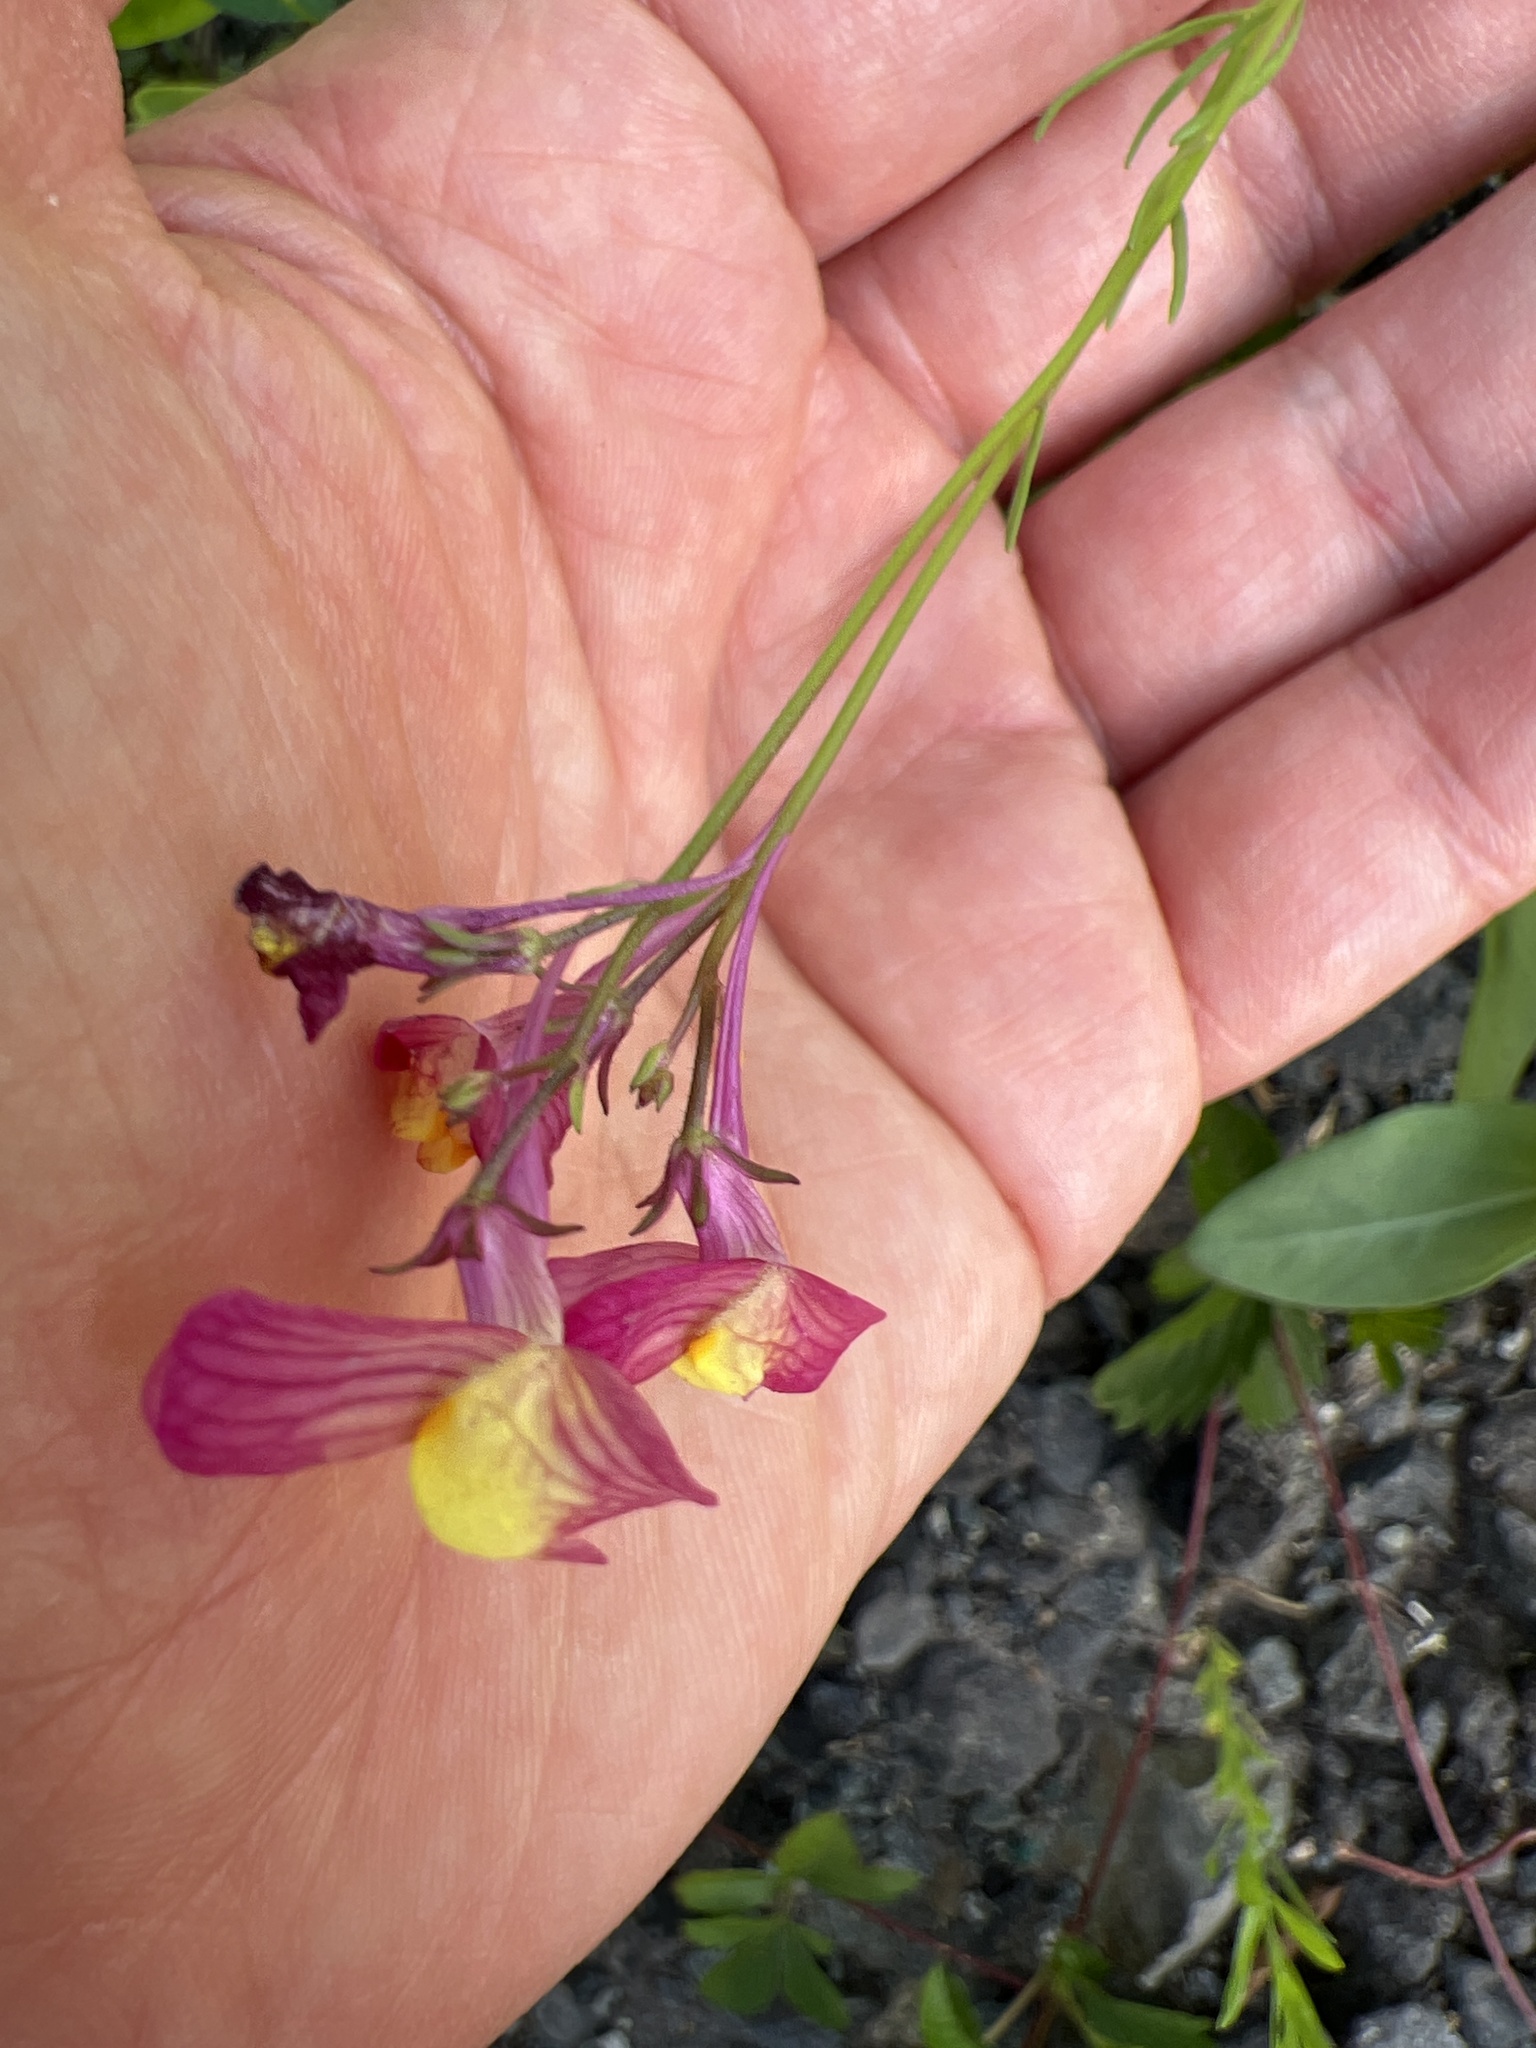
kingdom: Plantae
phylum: Tracheophyta
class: Magnoliopsida
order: Lamiales
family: Plantaginaceae
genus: Linaria
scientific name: Linaria maroccana
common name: Moroccan toadflax
